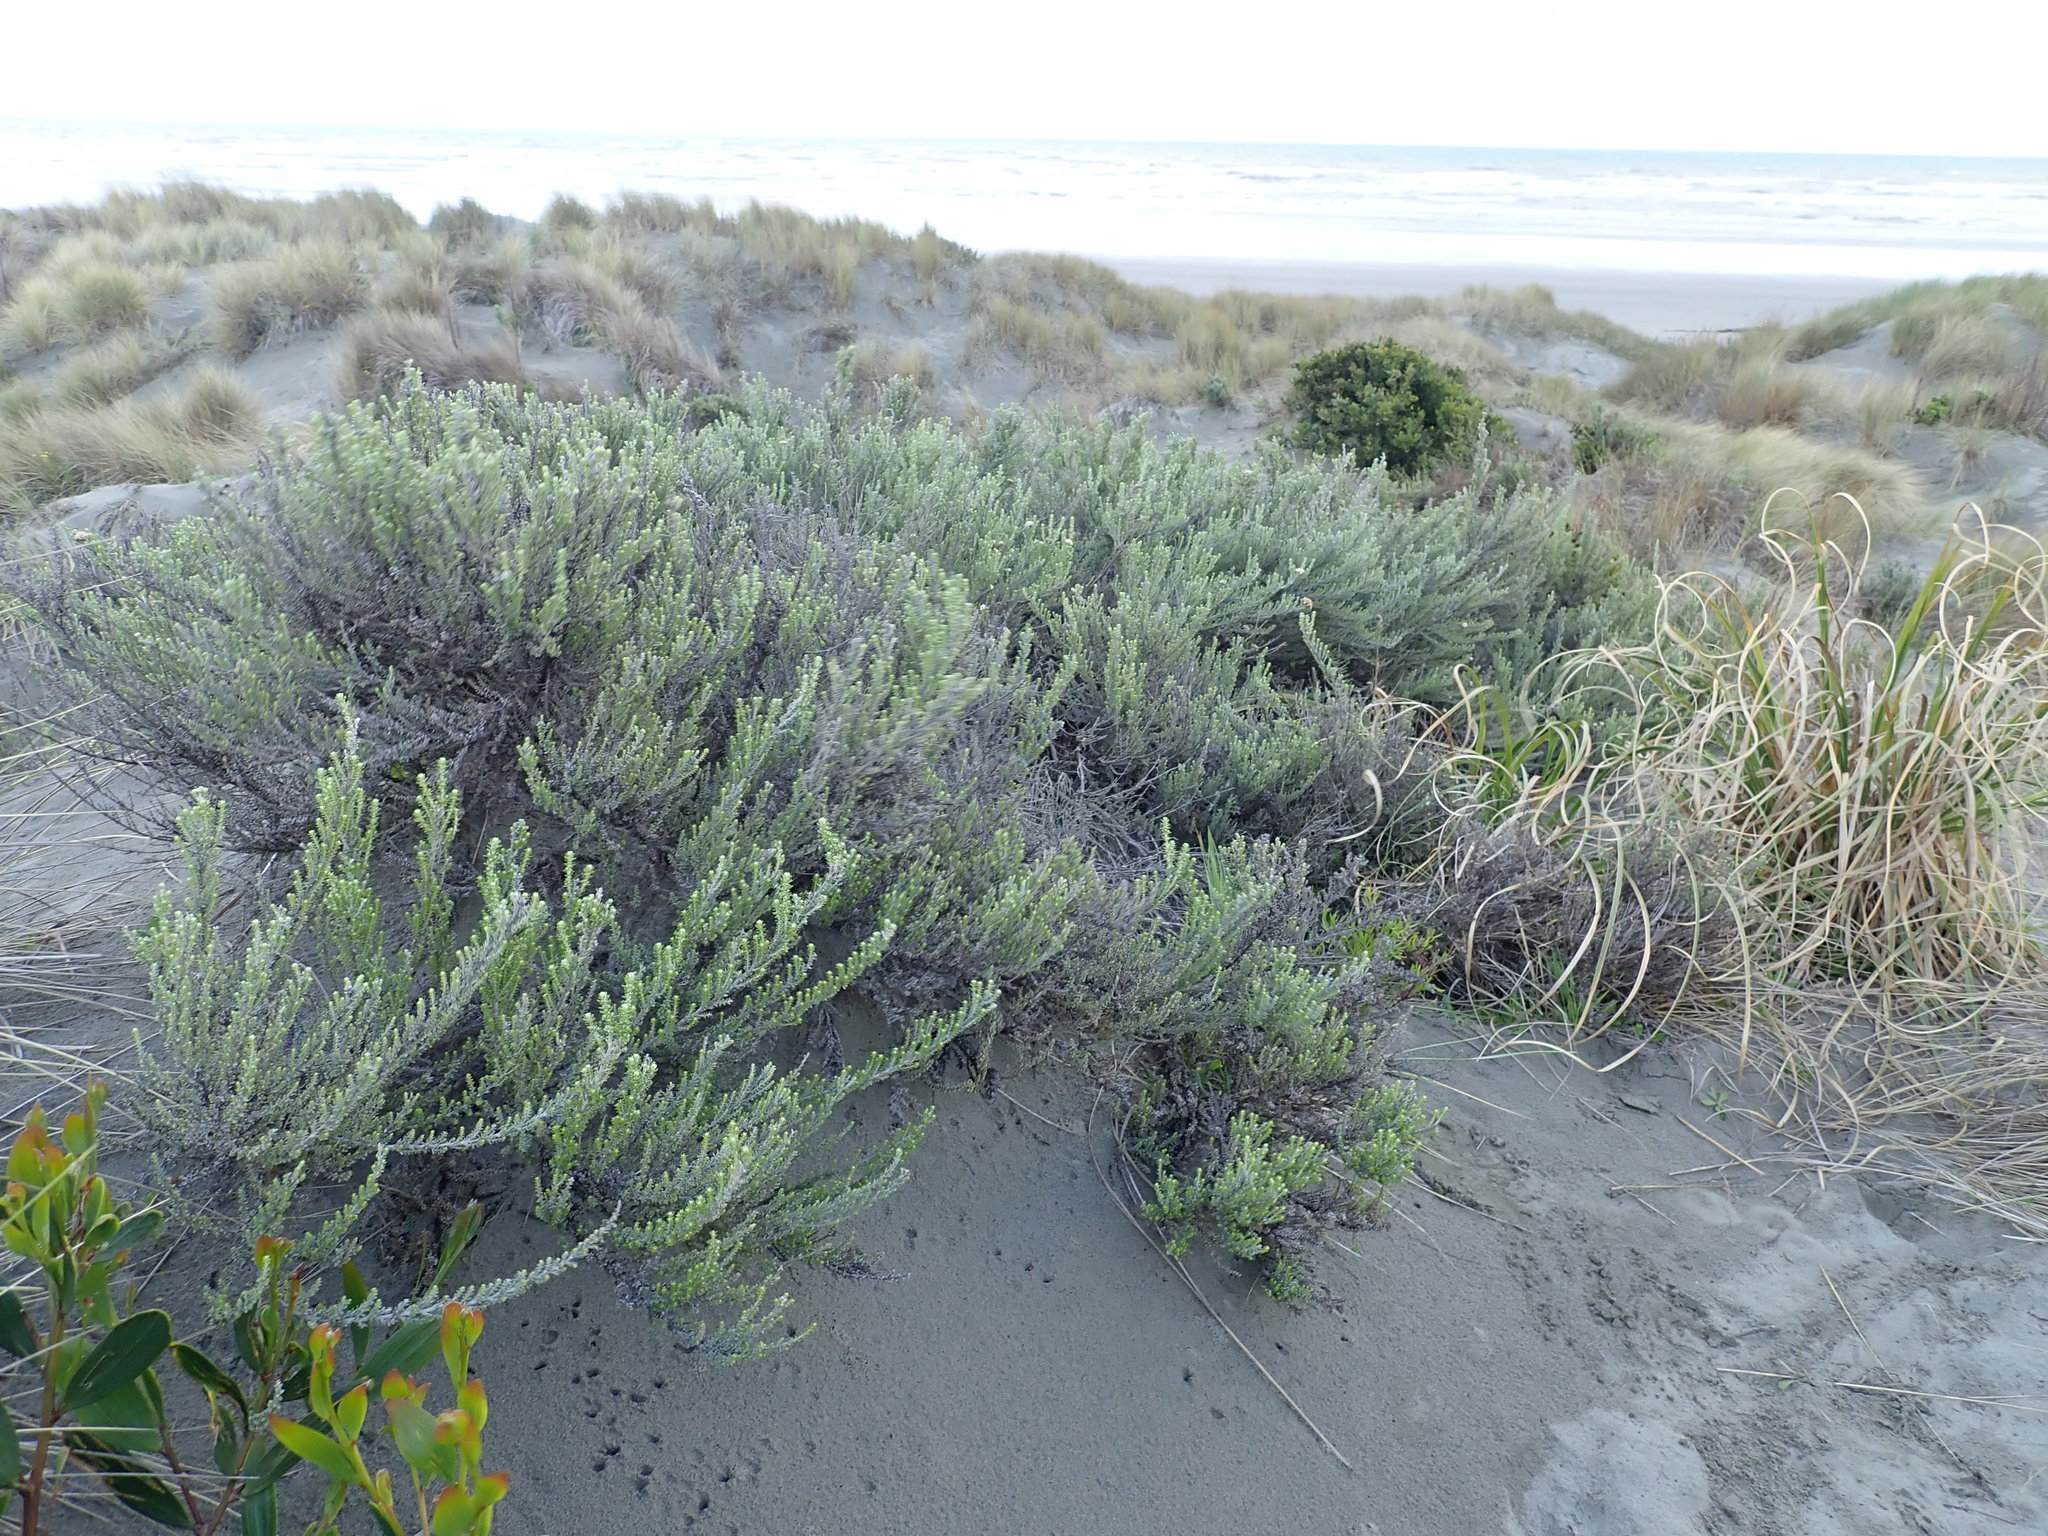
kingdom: Plantae
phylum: Tracheophyta
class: Magnoliopsida
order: Asterales
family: Asteraceae
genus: Ozothamnus
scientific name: Ozothamnus leptophyllus
